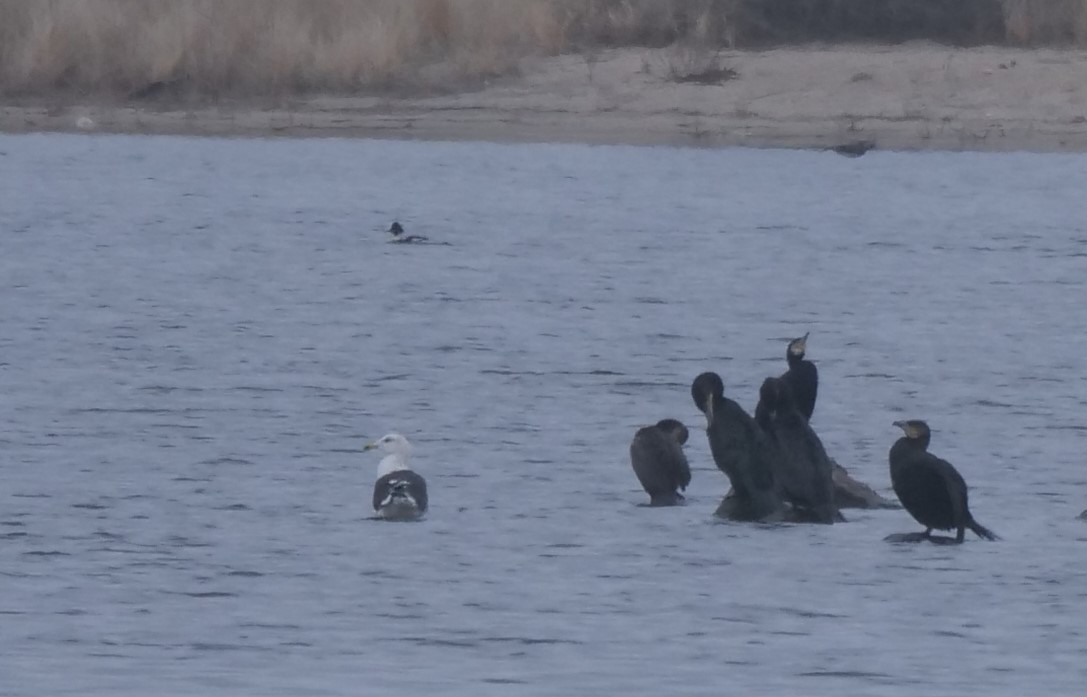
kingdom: Animalia
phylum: Chordata
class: Aves
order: Suliformes
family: Phalacrocoracidae
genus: Phalacrocorax
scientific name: Phalacrocorax carbo
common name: Great cormorant
